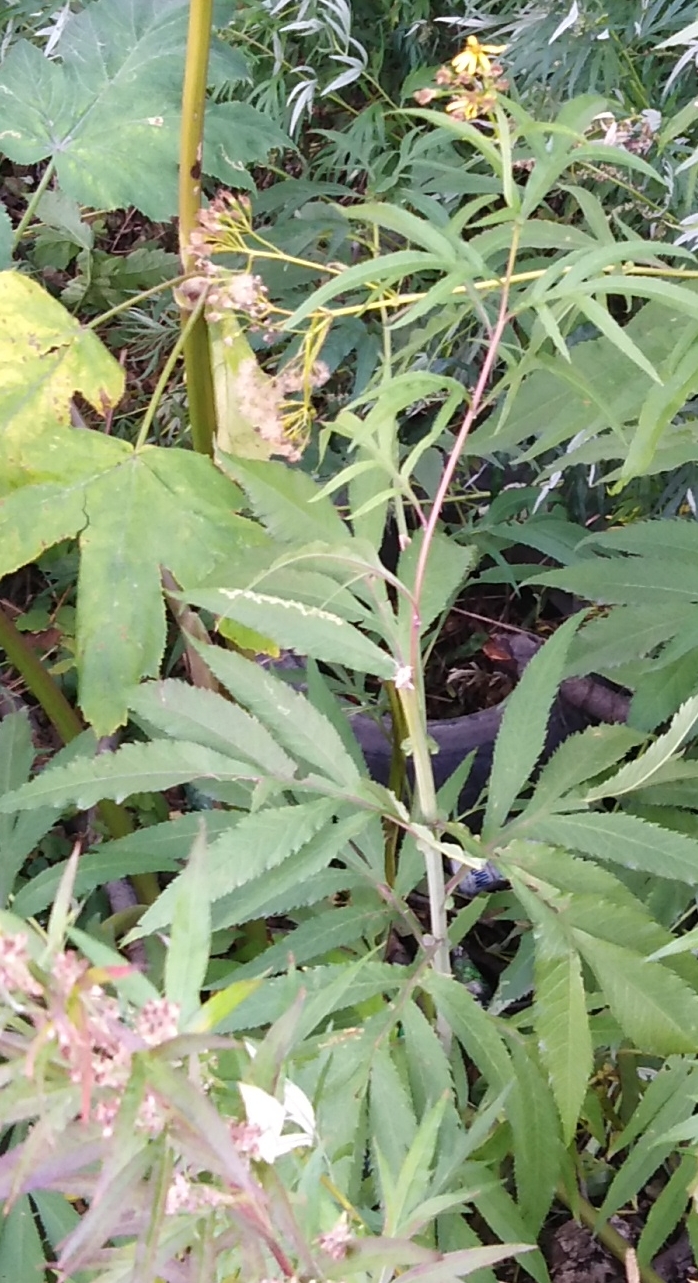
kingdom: Plantae
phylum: Tracheophyta
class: Magnoliopsida
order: Asterales
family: Asteraceae
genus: Jacobaea
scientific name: Jacobaea cannabifolia
